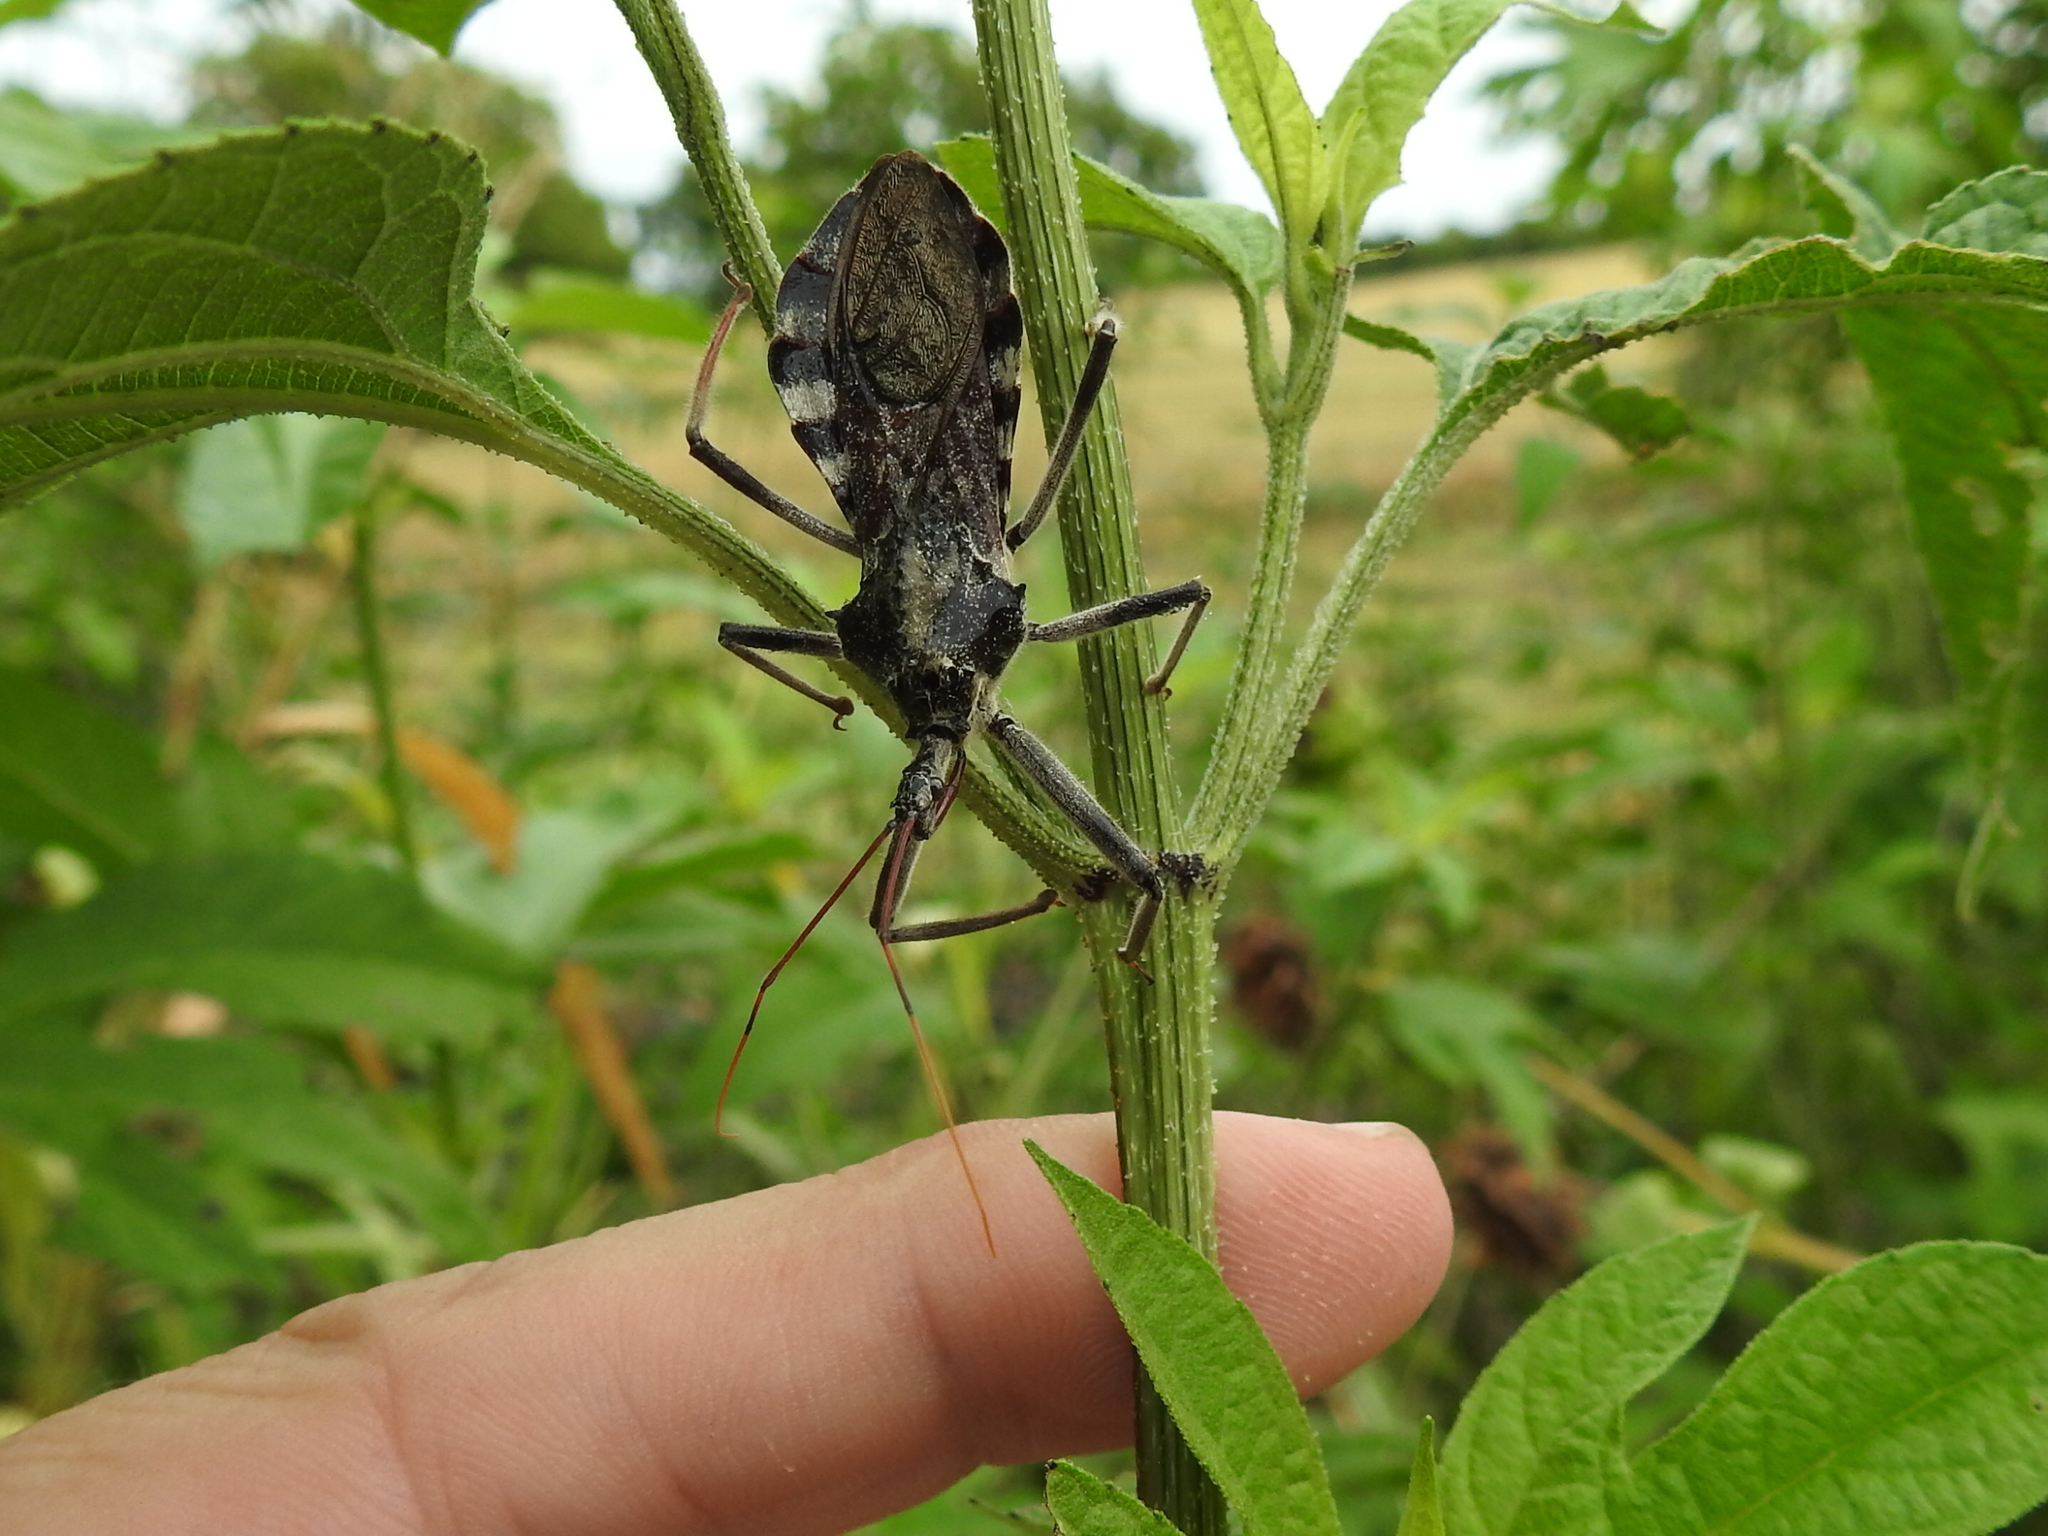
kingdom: Animalia
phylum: Arthropoda
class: Insecta
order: Hemiptera
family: Reduviidae
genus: Arilus
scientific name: Arilus cristatus
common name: North american wheel bug
